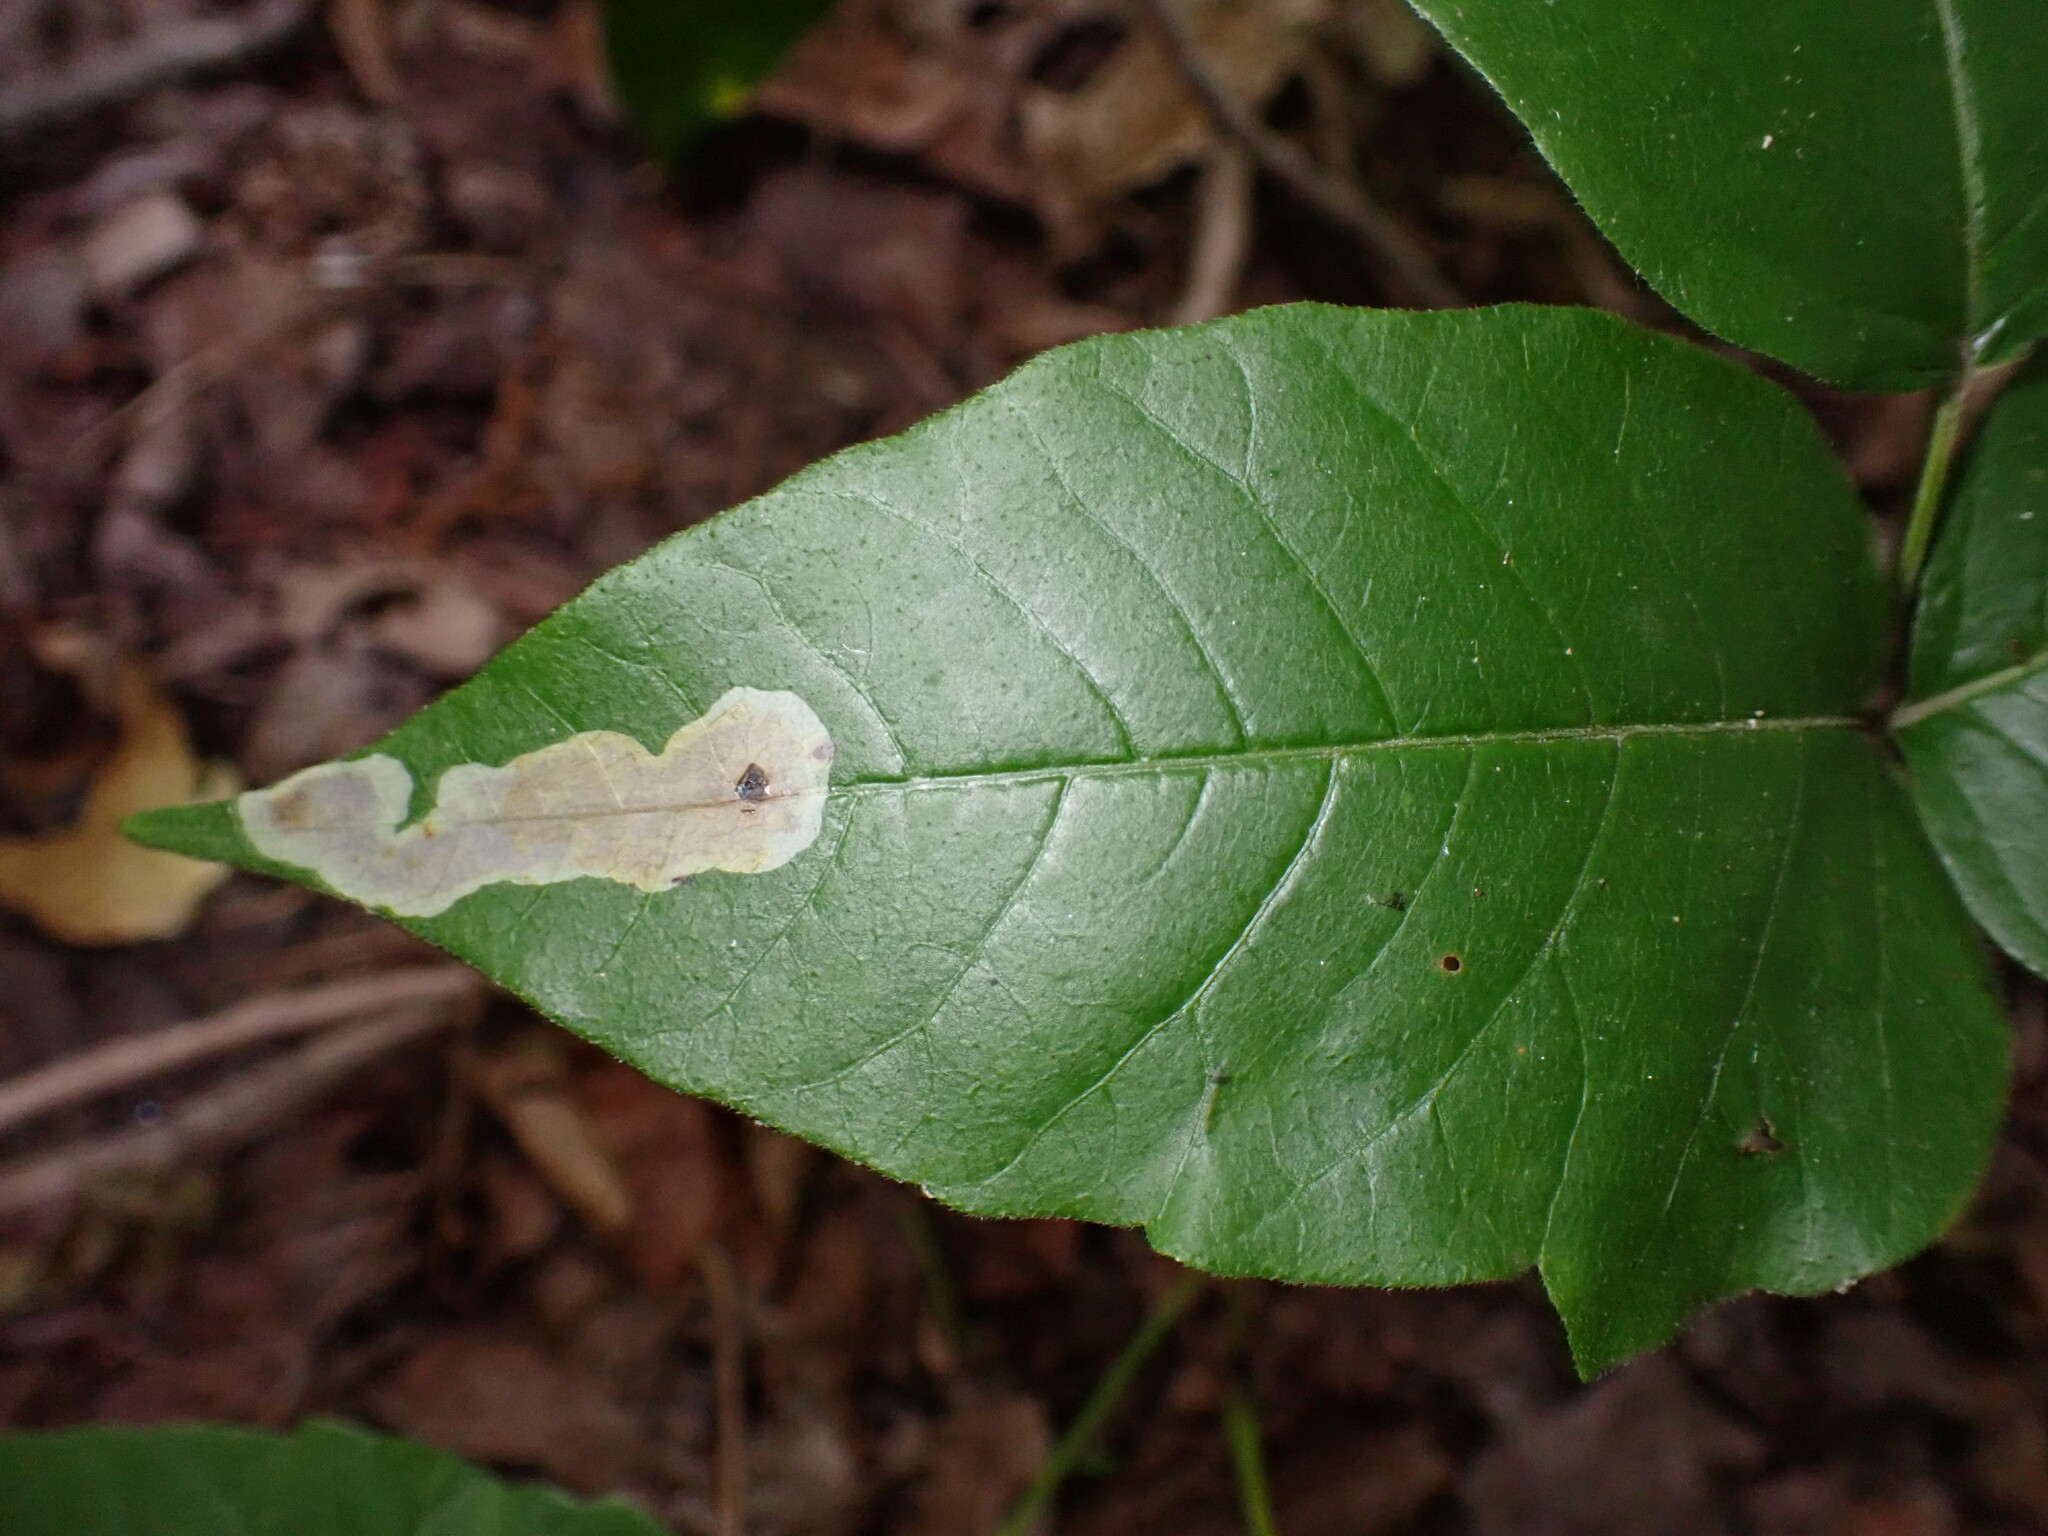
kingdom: Animalia
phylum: Arthropoda
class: Insecta
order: Lepidoptera
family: Gracillariidae
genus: Cameraria
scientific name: Cameraria guttifinitella
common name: Poison ivy leaf-miner moth
